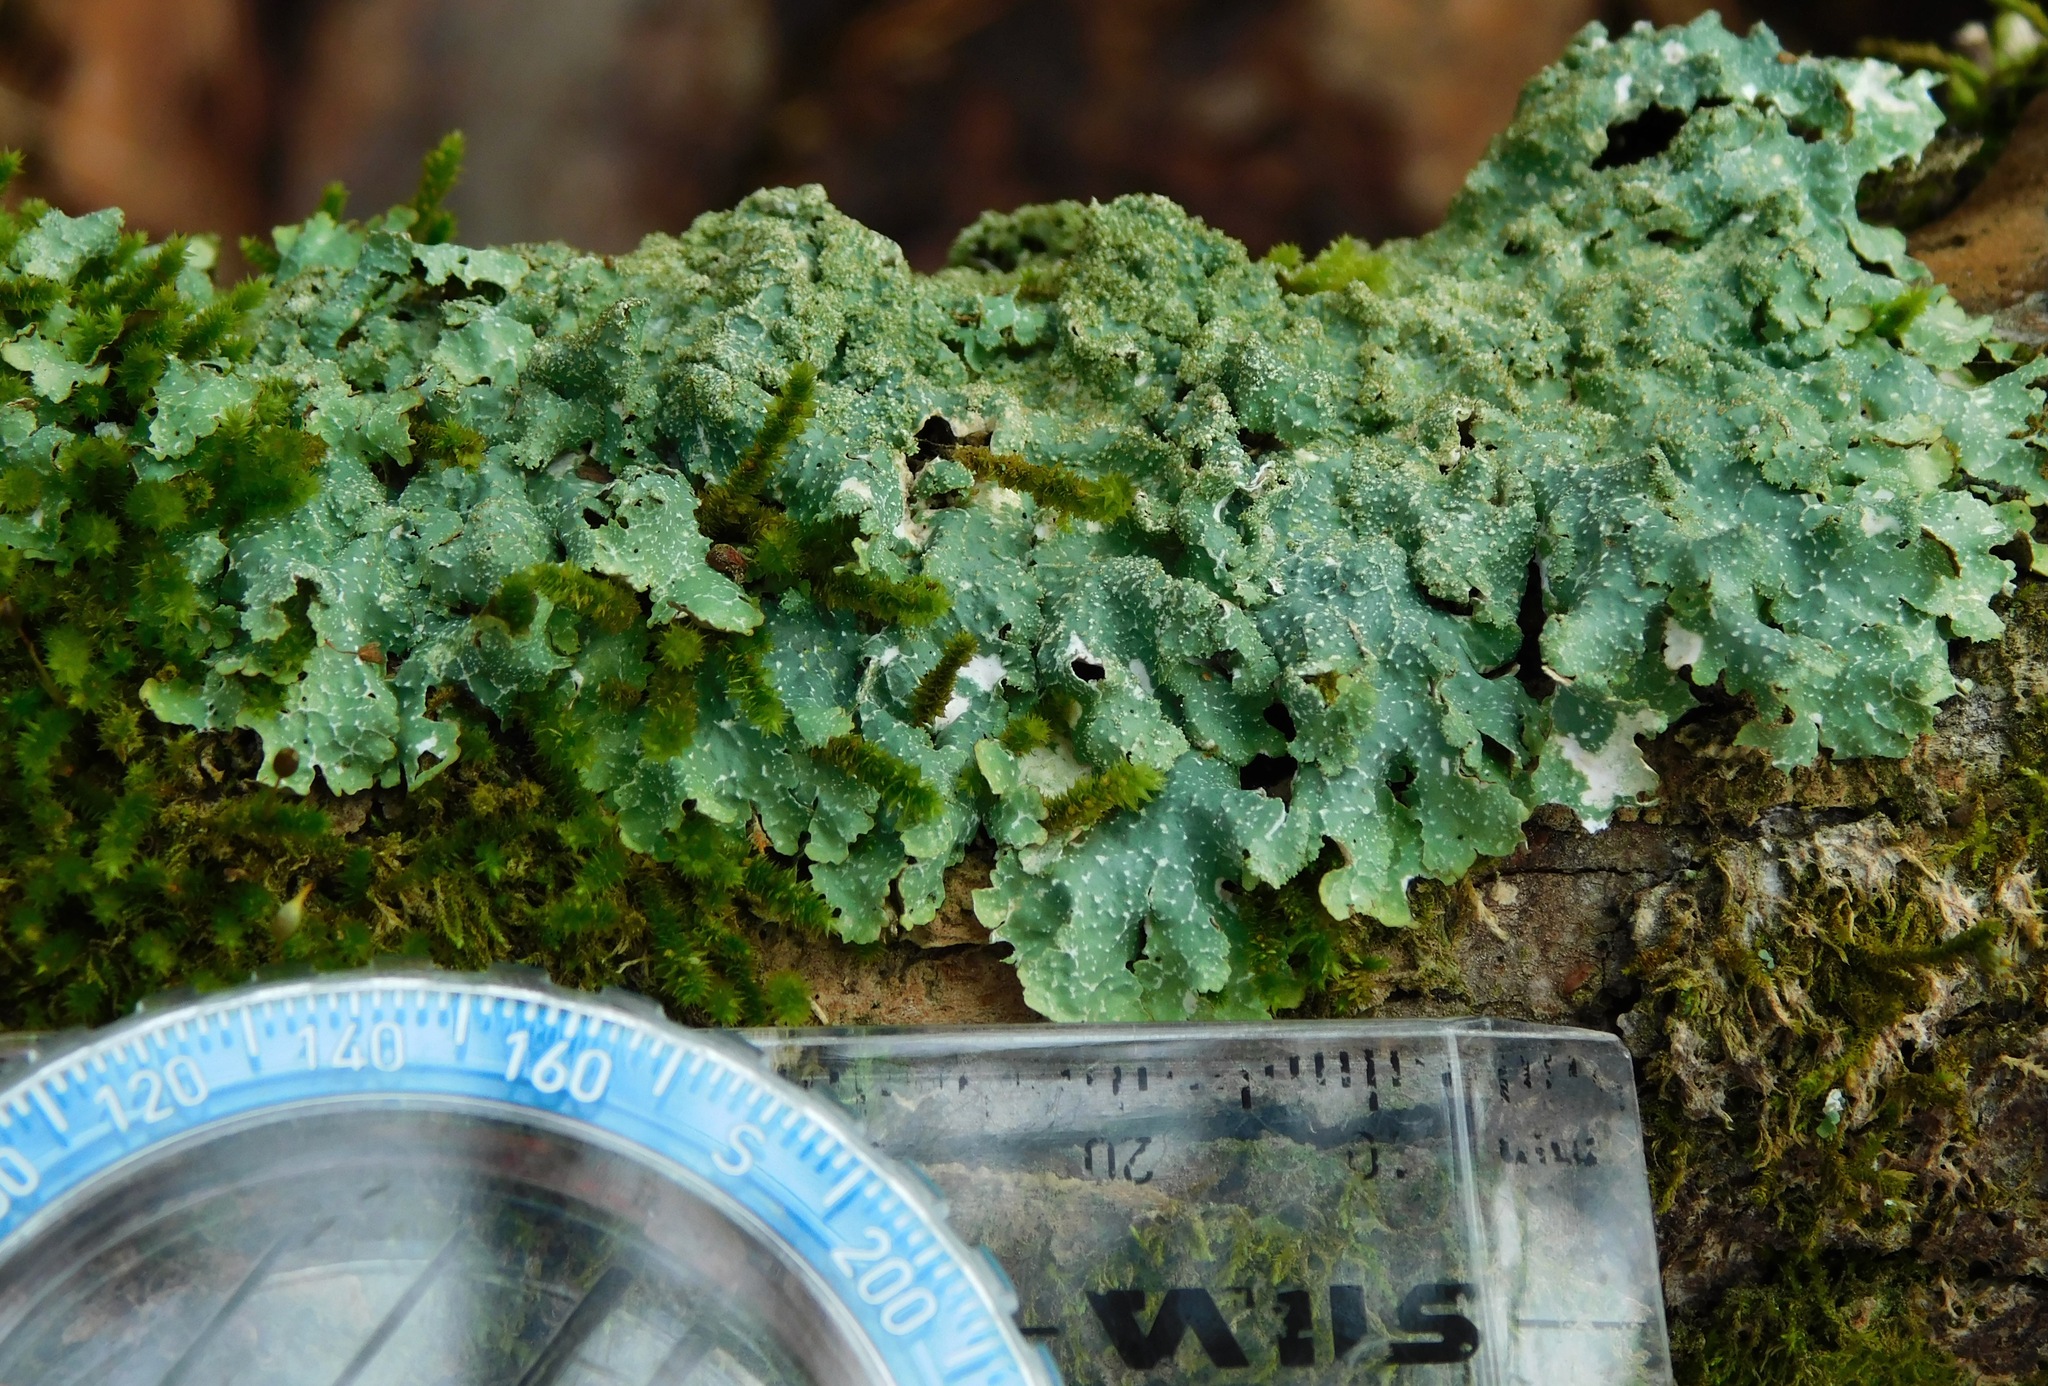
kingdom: Fungi
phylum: Ascomycota
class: Lecanoromycetes
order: Lecanorales
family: Parmeliaceae
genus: Punctelia
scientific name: Punctelia rudecta
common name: Rough speckled shield lichen
